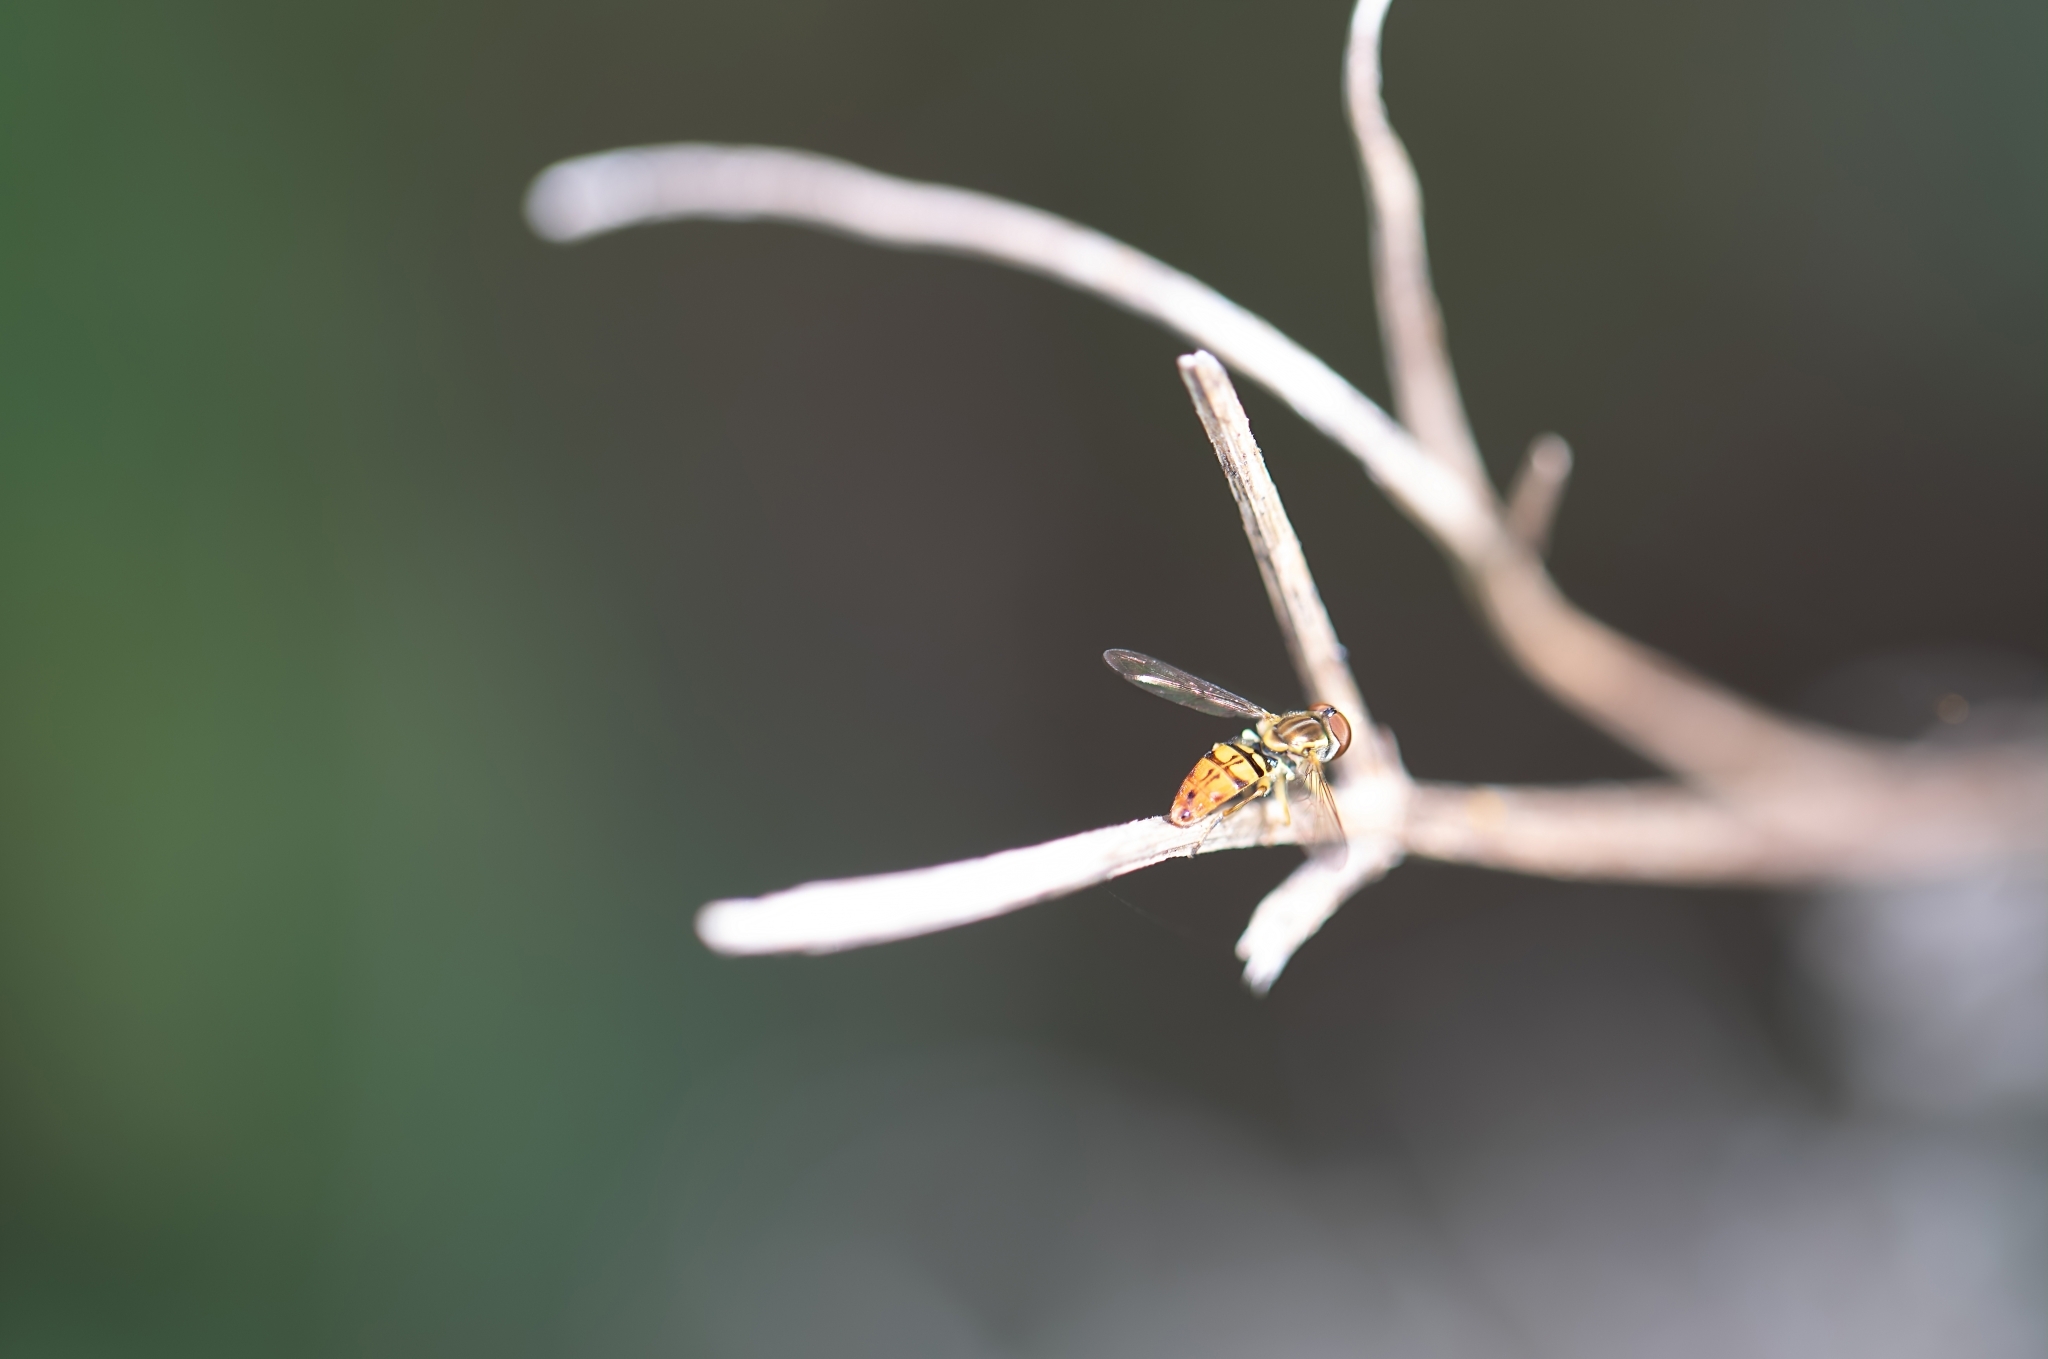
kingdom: Animalia
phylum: Arthropoda
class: Insecta
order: Diptera
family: Syrphidae
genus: Toxomerus
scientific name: Toxomerus floralis
